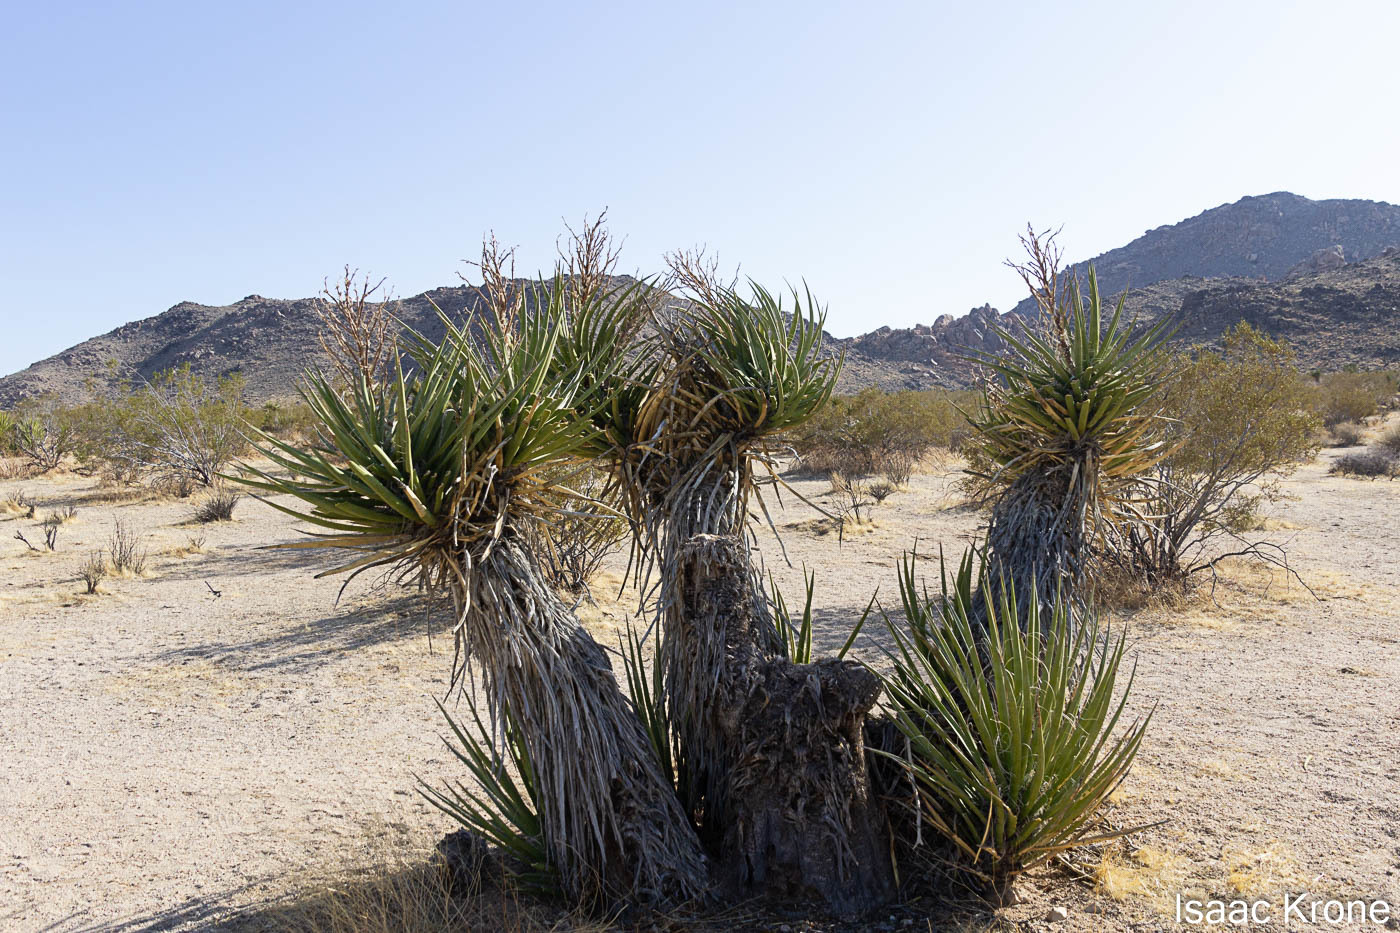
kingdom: Plantae
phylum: Tracheophyta
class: Liliopsida
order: Asparagales
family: Asparagaceae
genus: Yucca
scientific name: Yucca schidigera
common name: Mojave yucca
